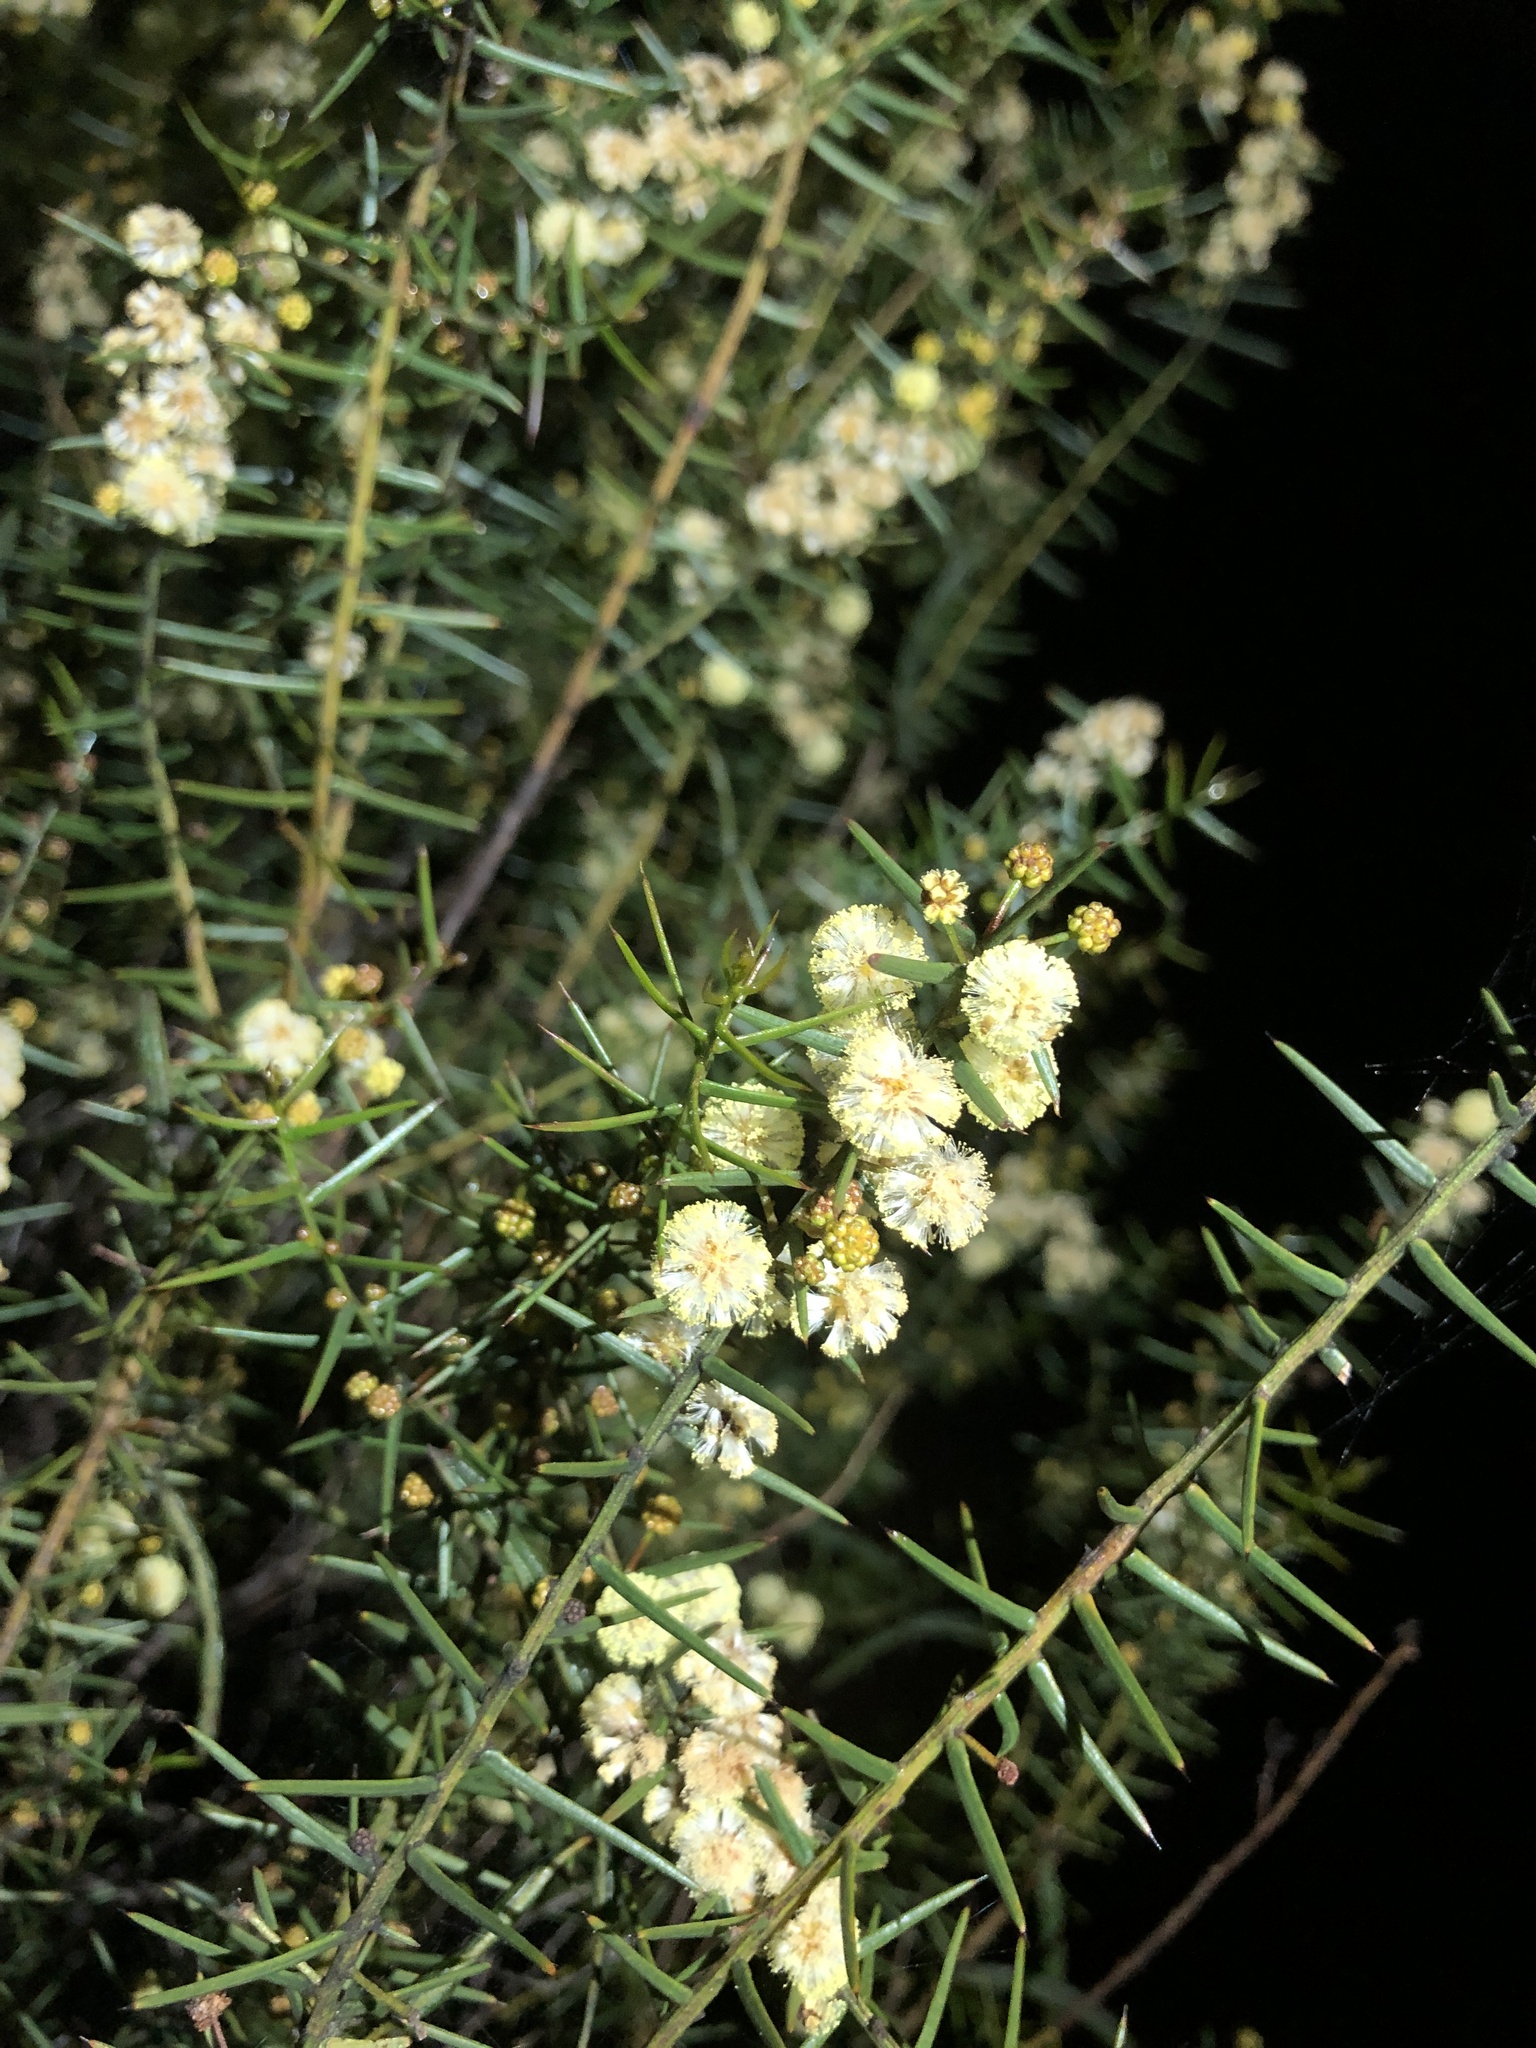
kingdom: Plantae
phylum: Tracheophyta
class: Magnoliopsida
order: Fabales
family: Fabaceae
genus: Acacia
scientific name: Acacia rupicola
